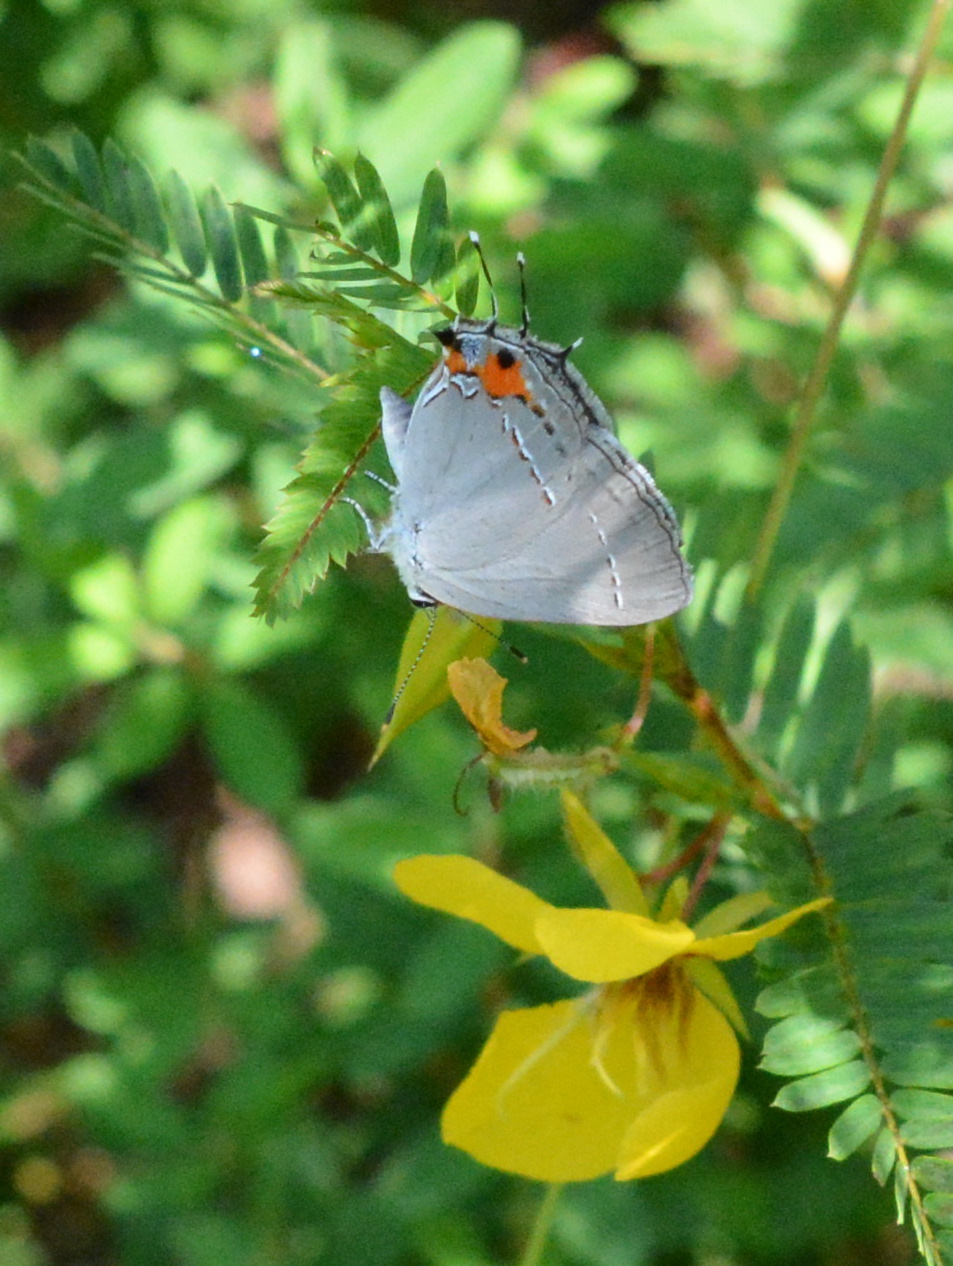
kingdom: Animalia
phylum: Arthropoda
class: Insecta
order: Lepidoptera
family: Lycaenidae
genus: Strymon
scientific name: Strymon melinus
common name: Gray hairstreak
